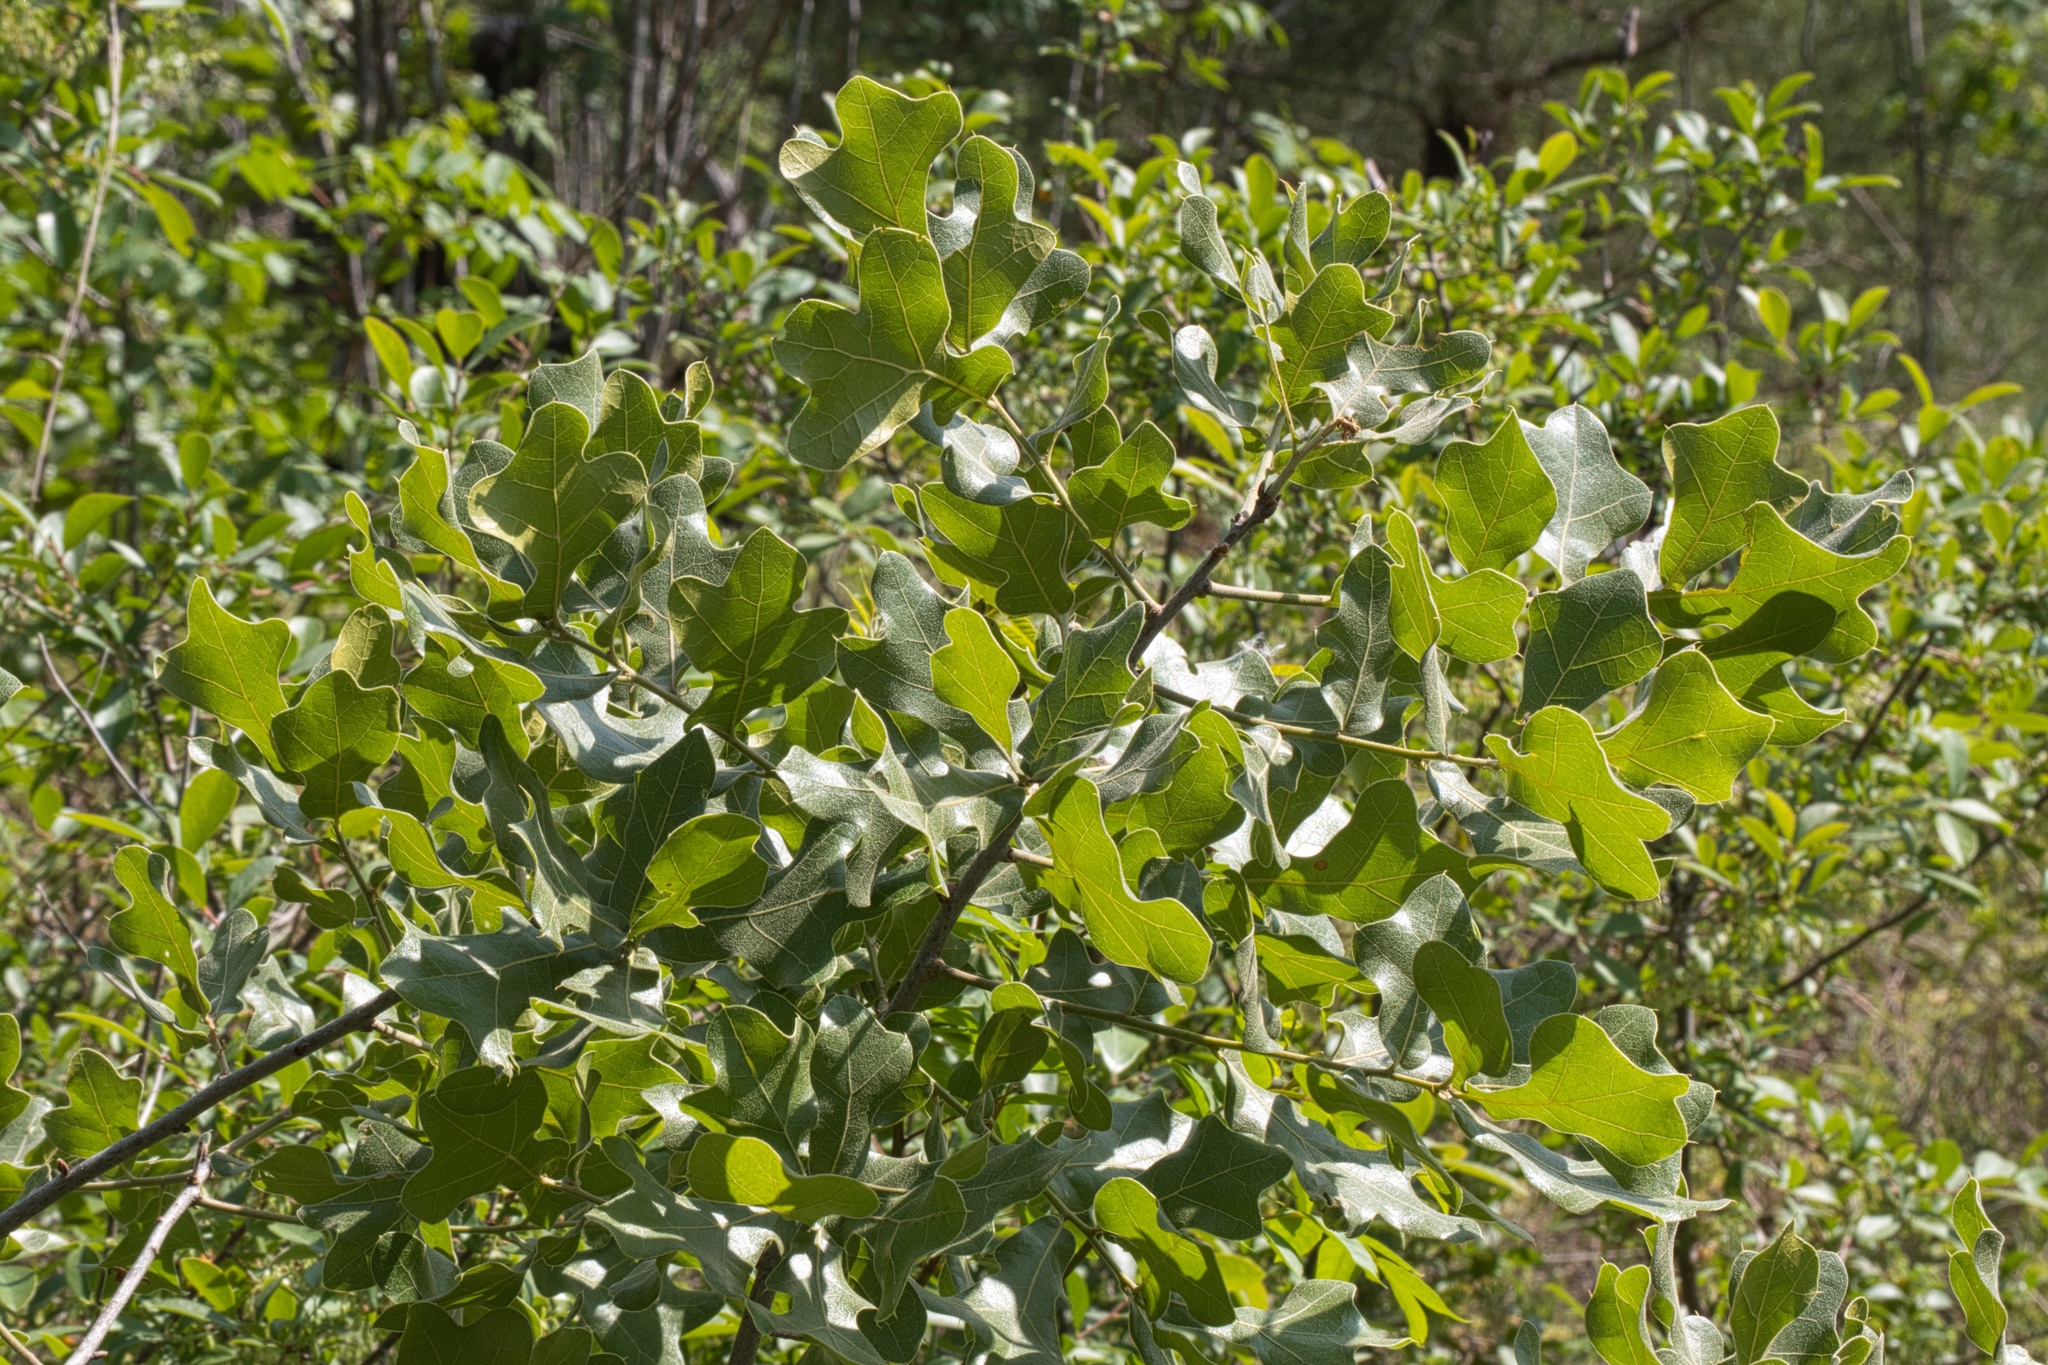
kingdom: Plantae
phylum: Tracheophyta
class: Magnoliopsida
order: Fagales
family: Fagaceae
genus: Quercus
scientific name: Quercus marilandica
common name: Blackjack oak
